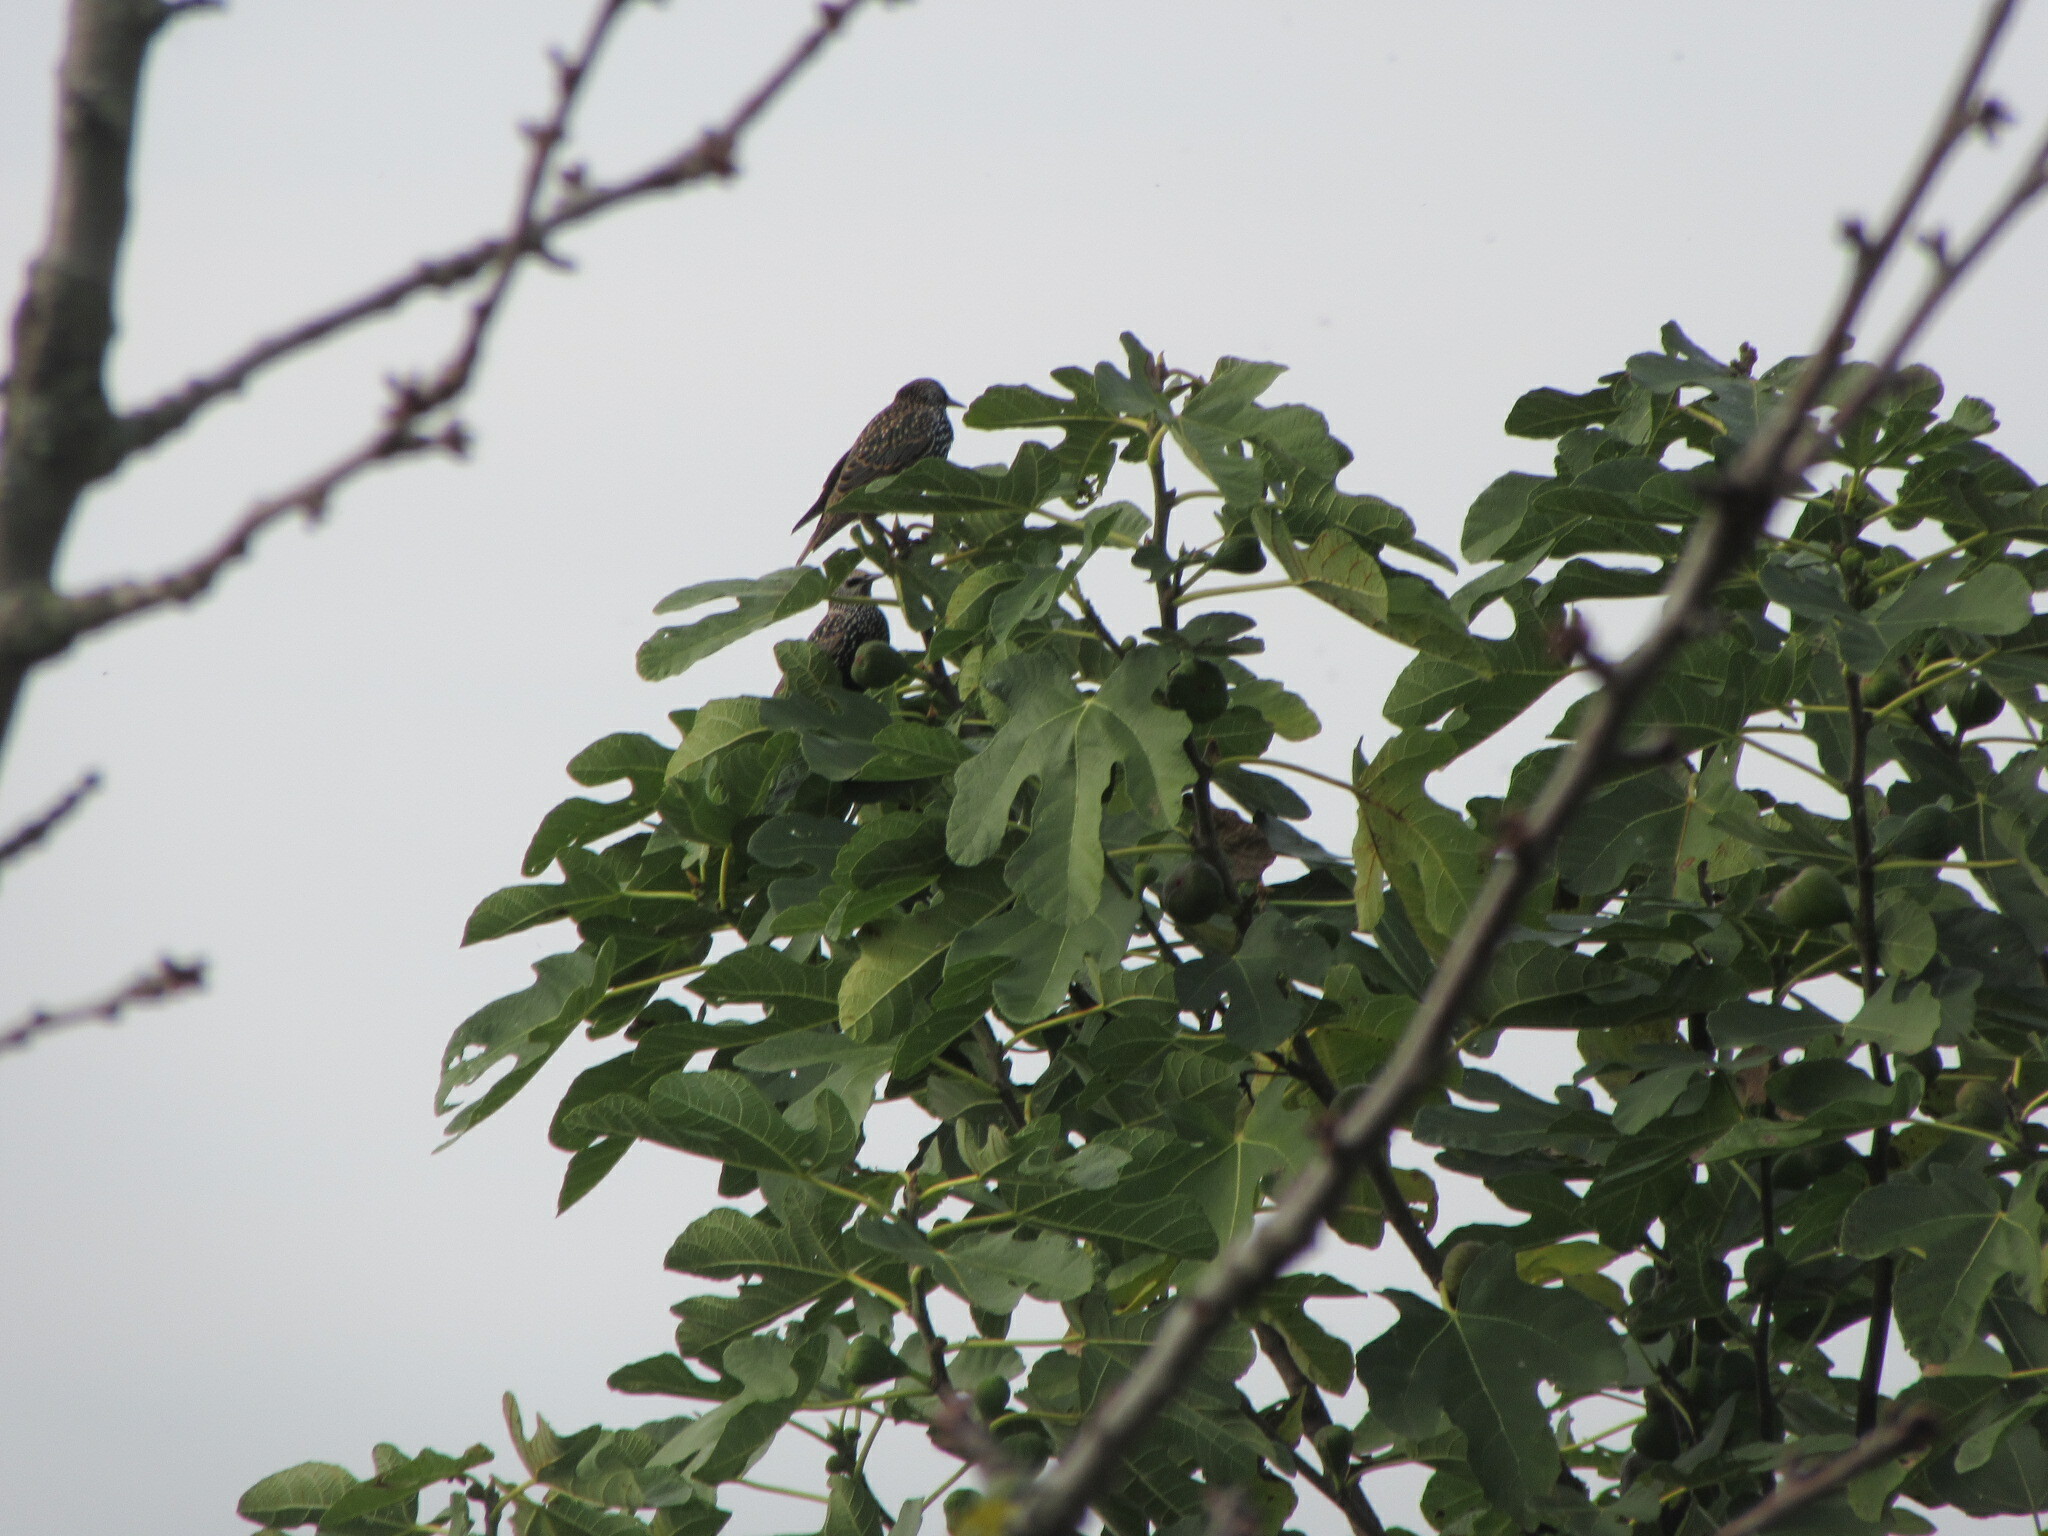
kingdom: Animalia
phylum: Chordata
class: Aves
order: Passeriformes
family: Sturnidae
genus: Sturnus
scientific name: Sturnus vulgaris
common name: Common starling
